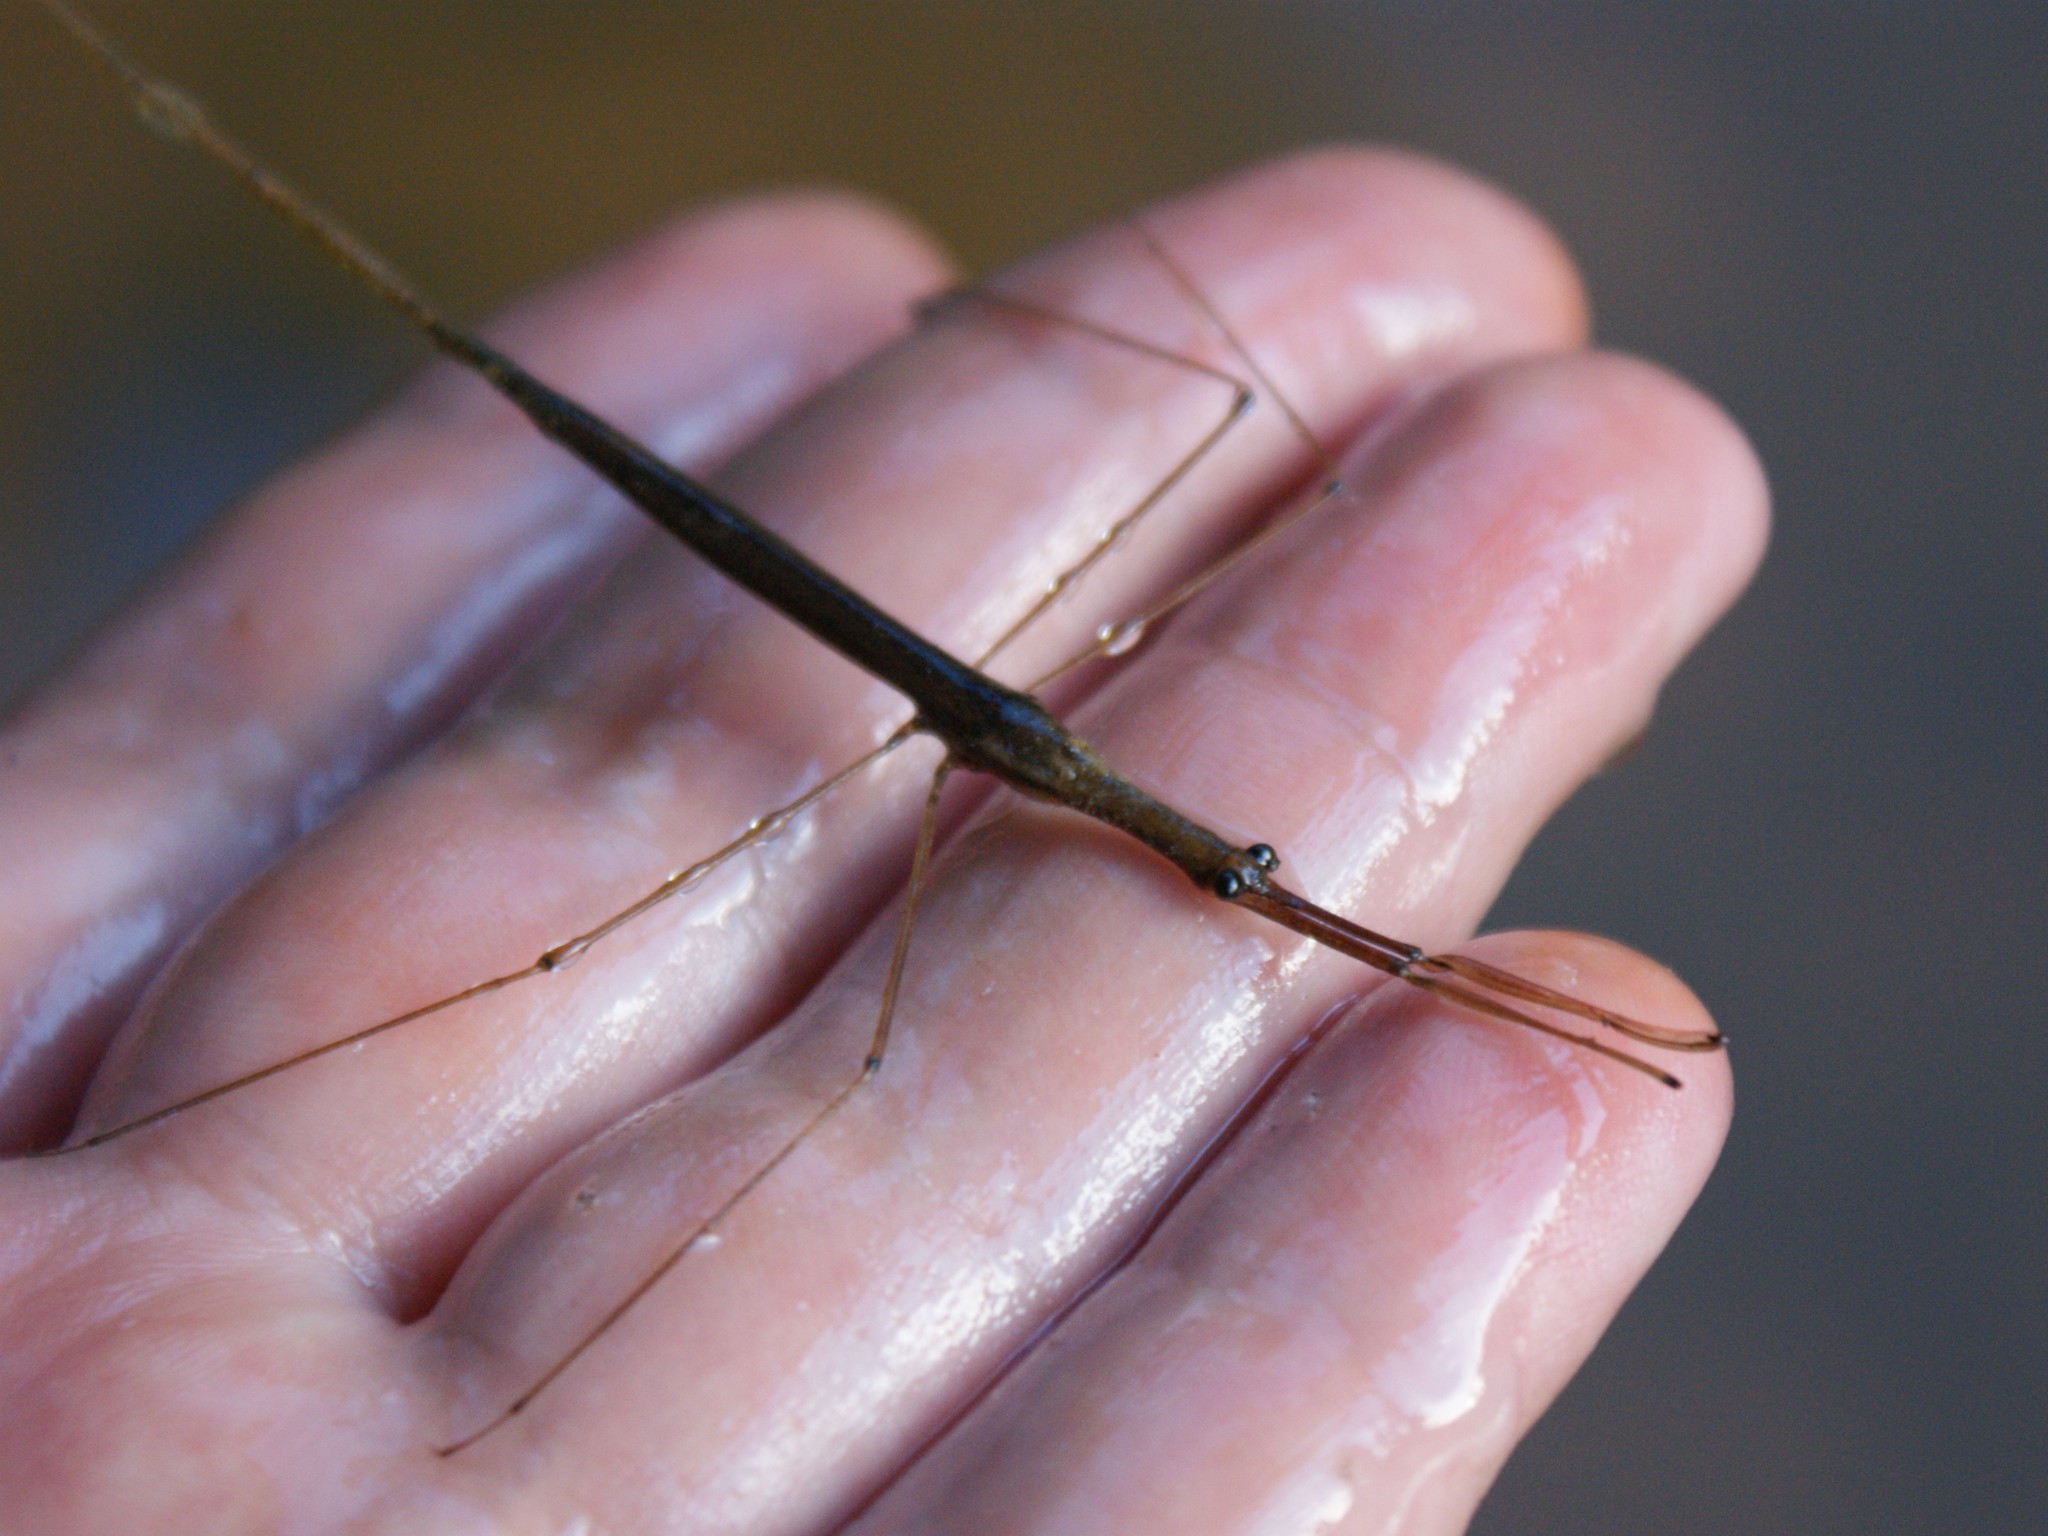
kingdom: Animalia
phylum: Arthropoda
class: Insecta
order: Hemiptera
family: Nepidae
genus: Ranatra
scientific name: Ranatra
